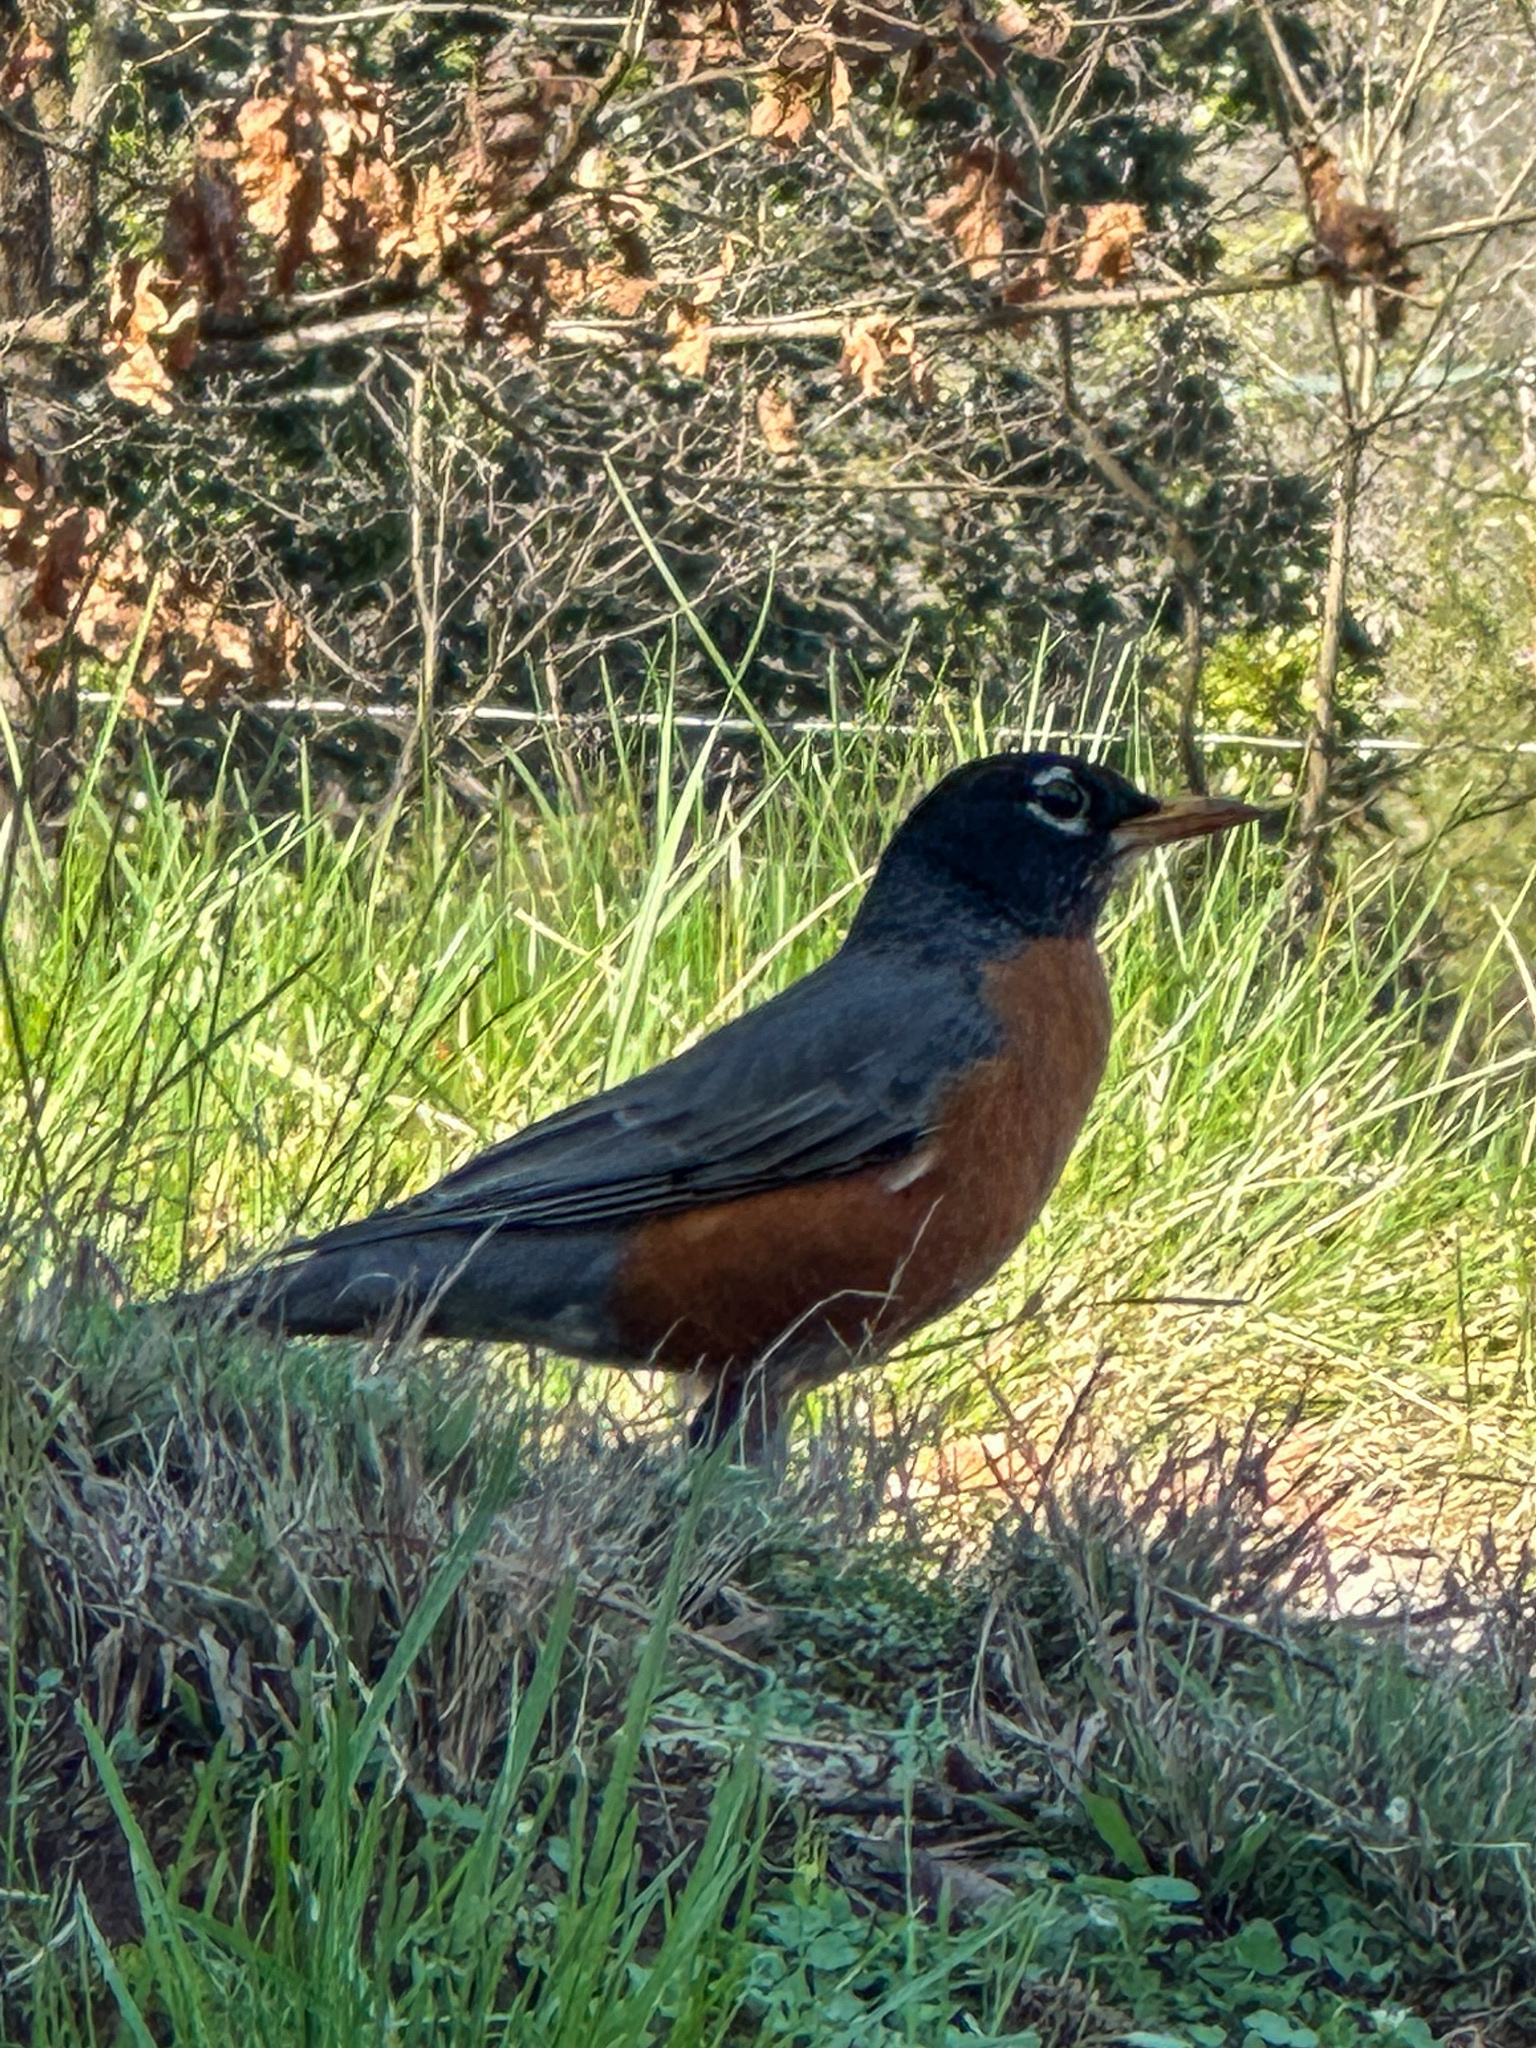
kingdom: Animalia
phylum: Chordata
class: Aves
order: Passeriformes
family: Turdidae
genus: Turdus
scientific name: Turdus migratorius
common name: American robin
